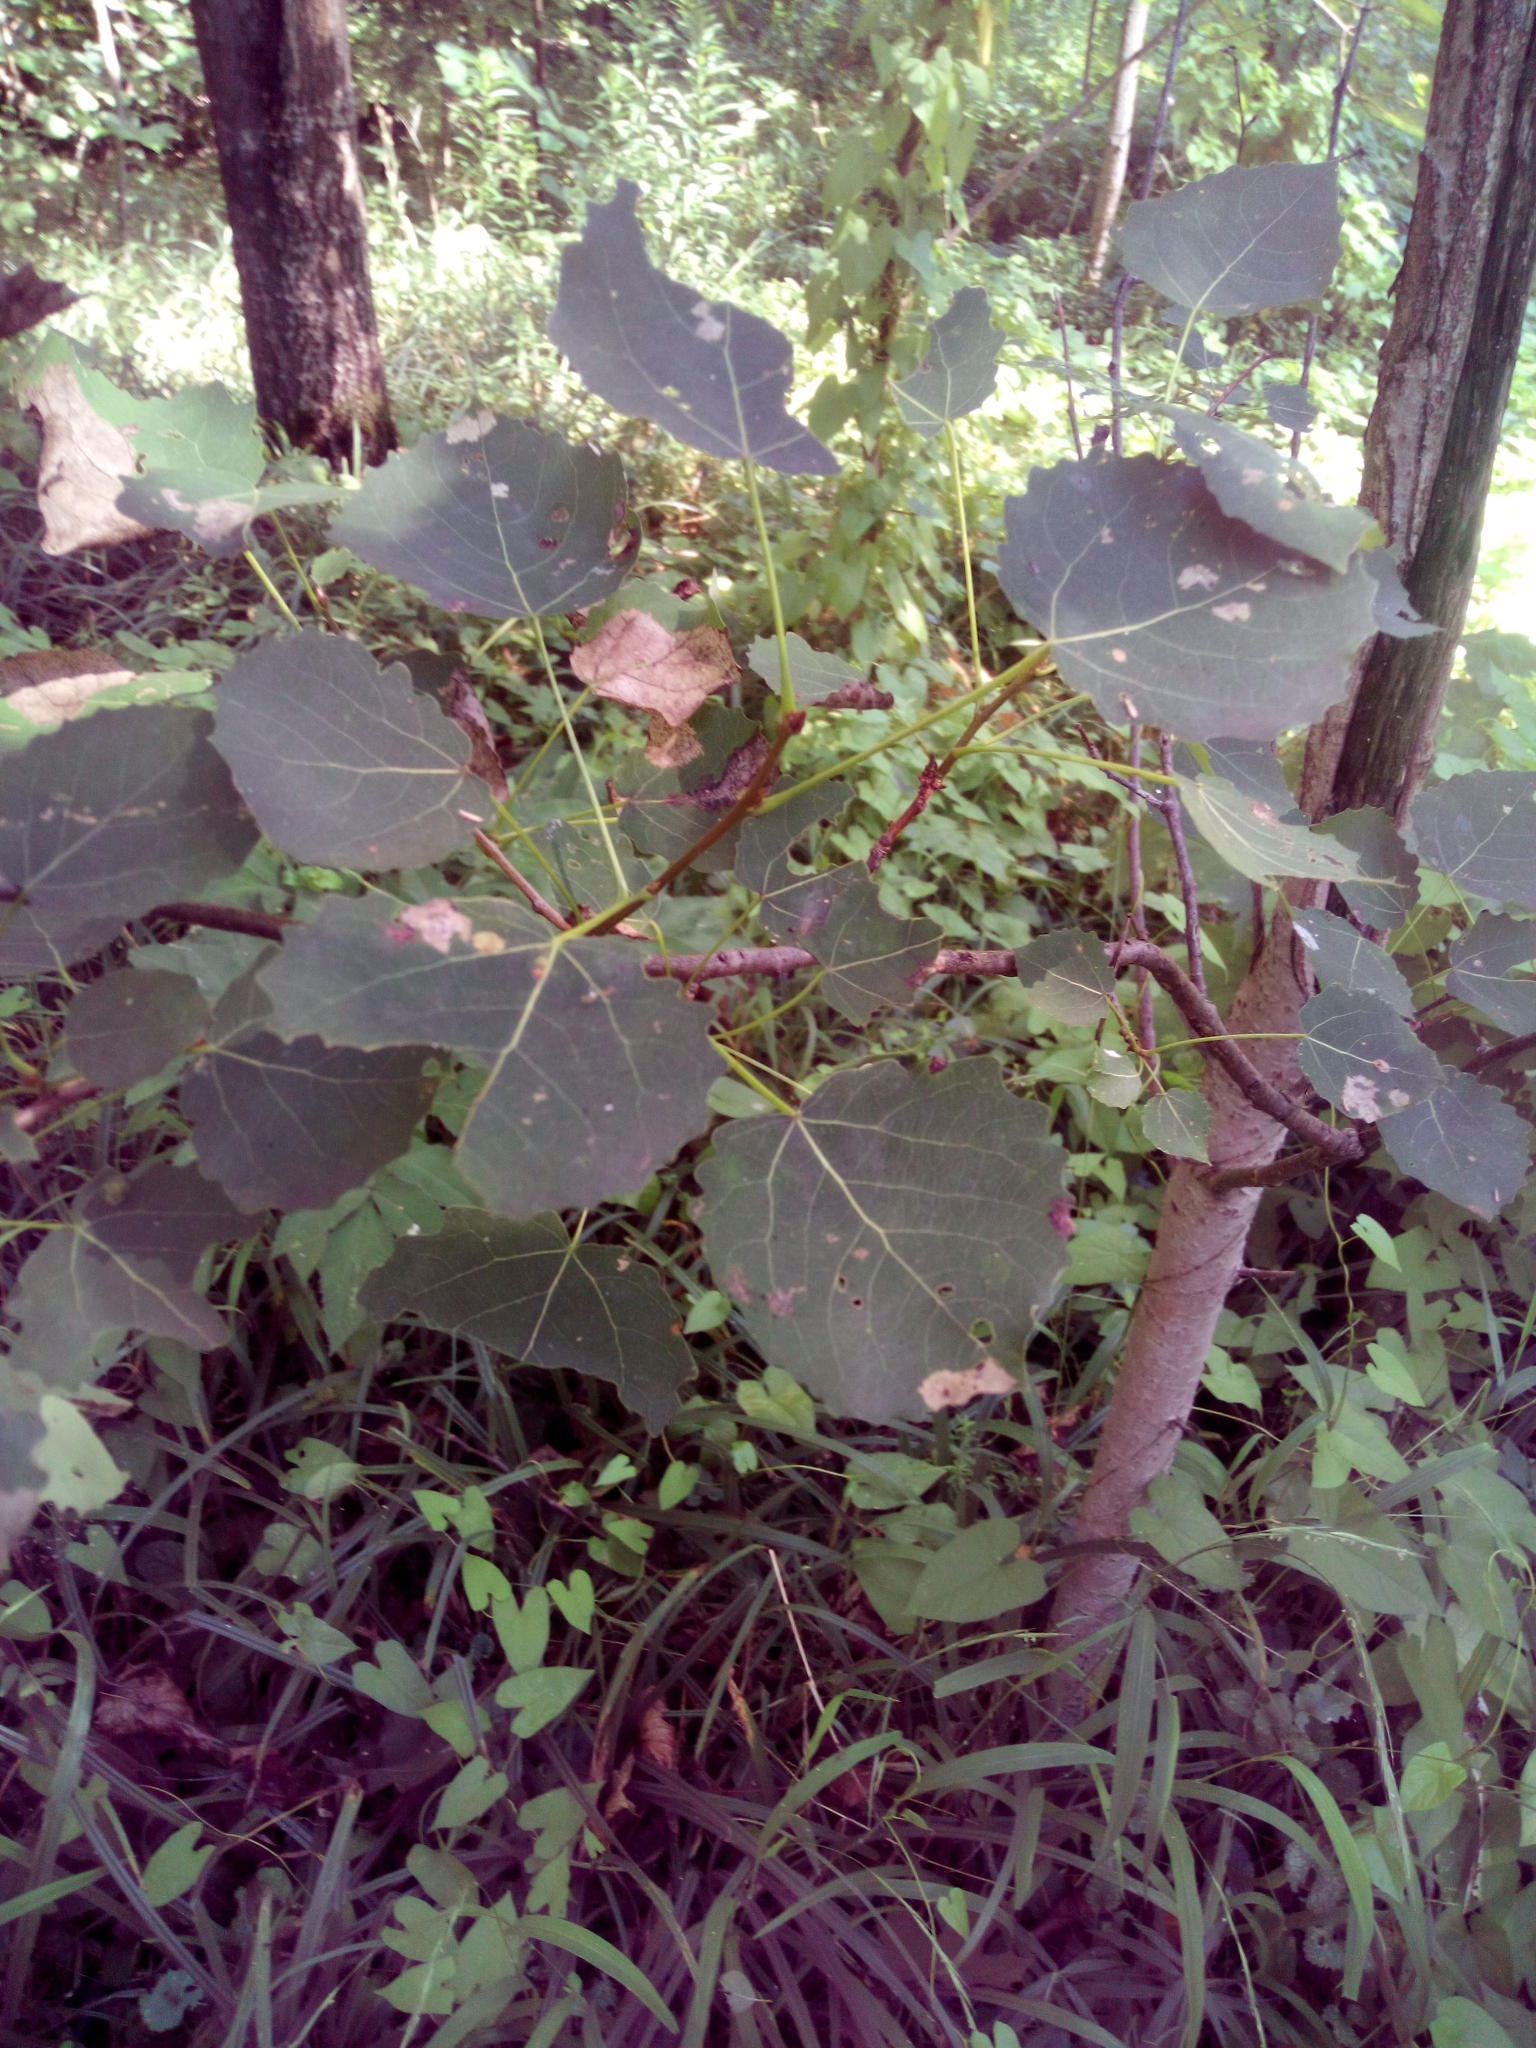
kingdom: Plantae
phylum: Tracheophyta
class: Magnoliopsida
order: Malpighiales
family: Salicaceae
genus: Populus
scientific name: Populus tremula
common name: European aspen
